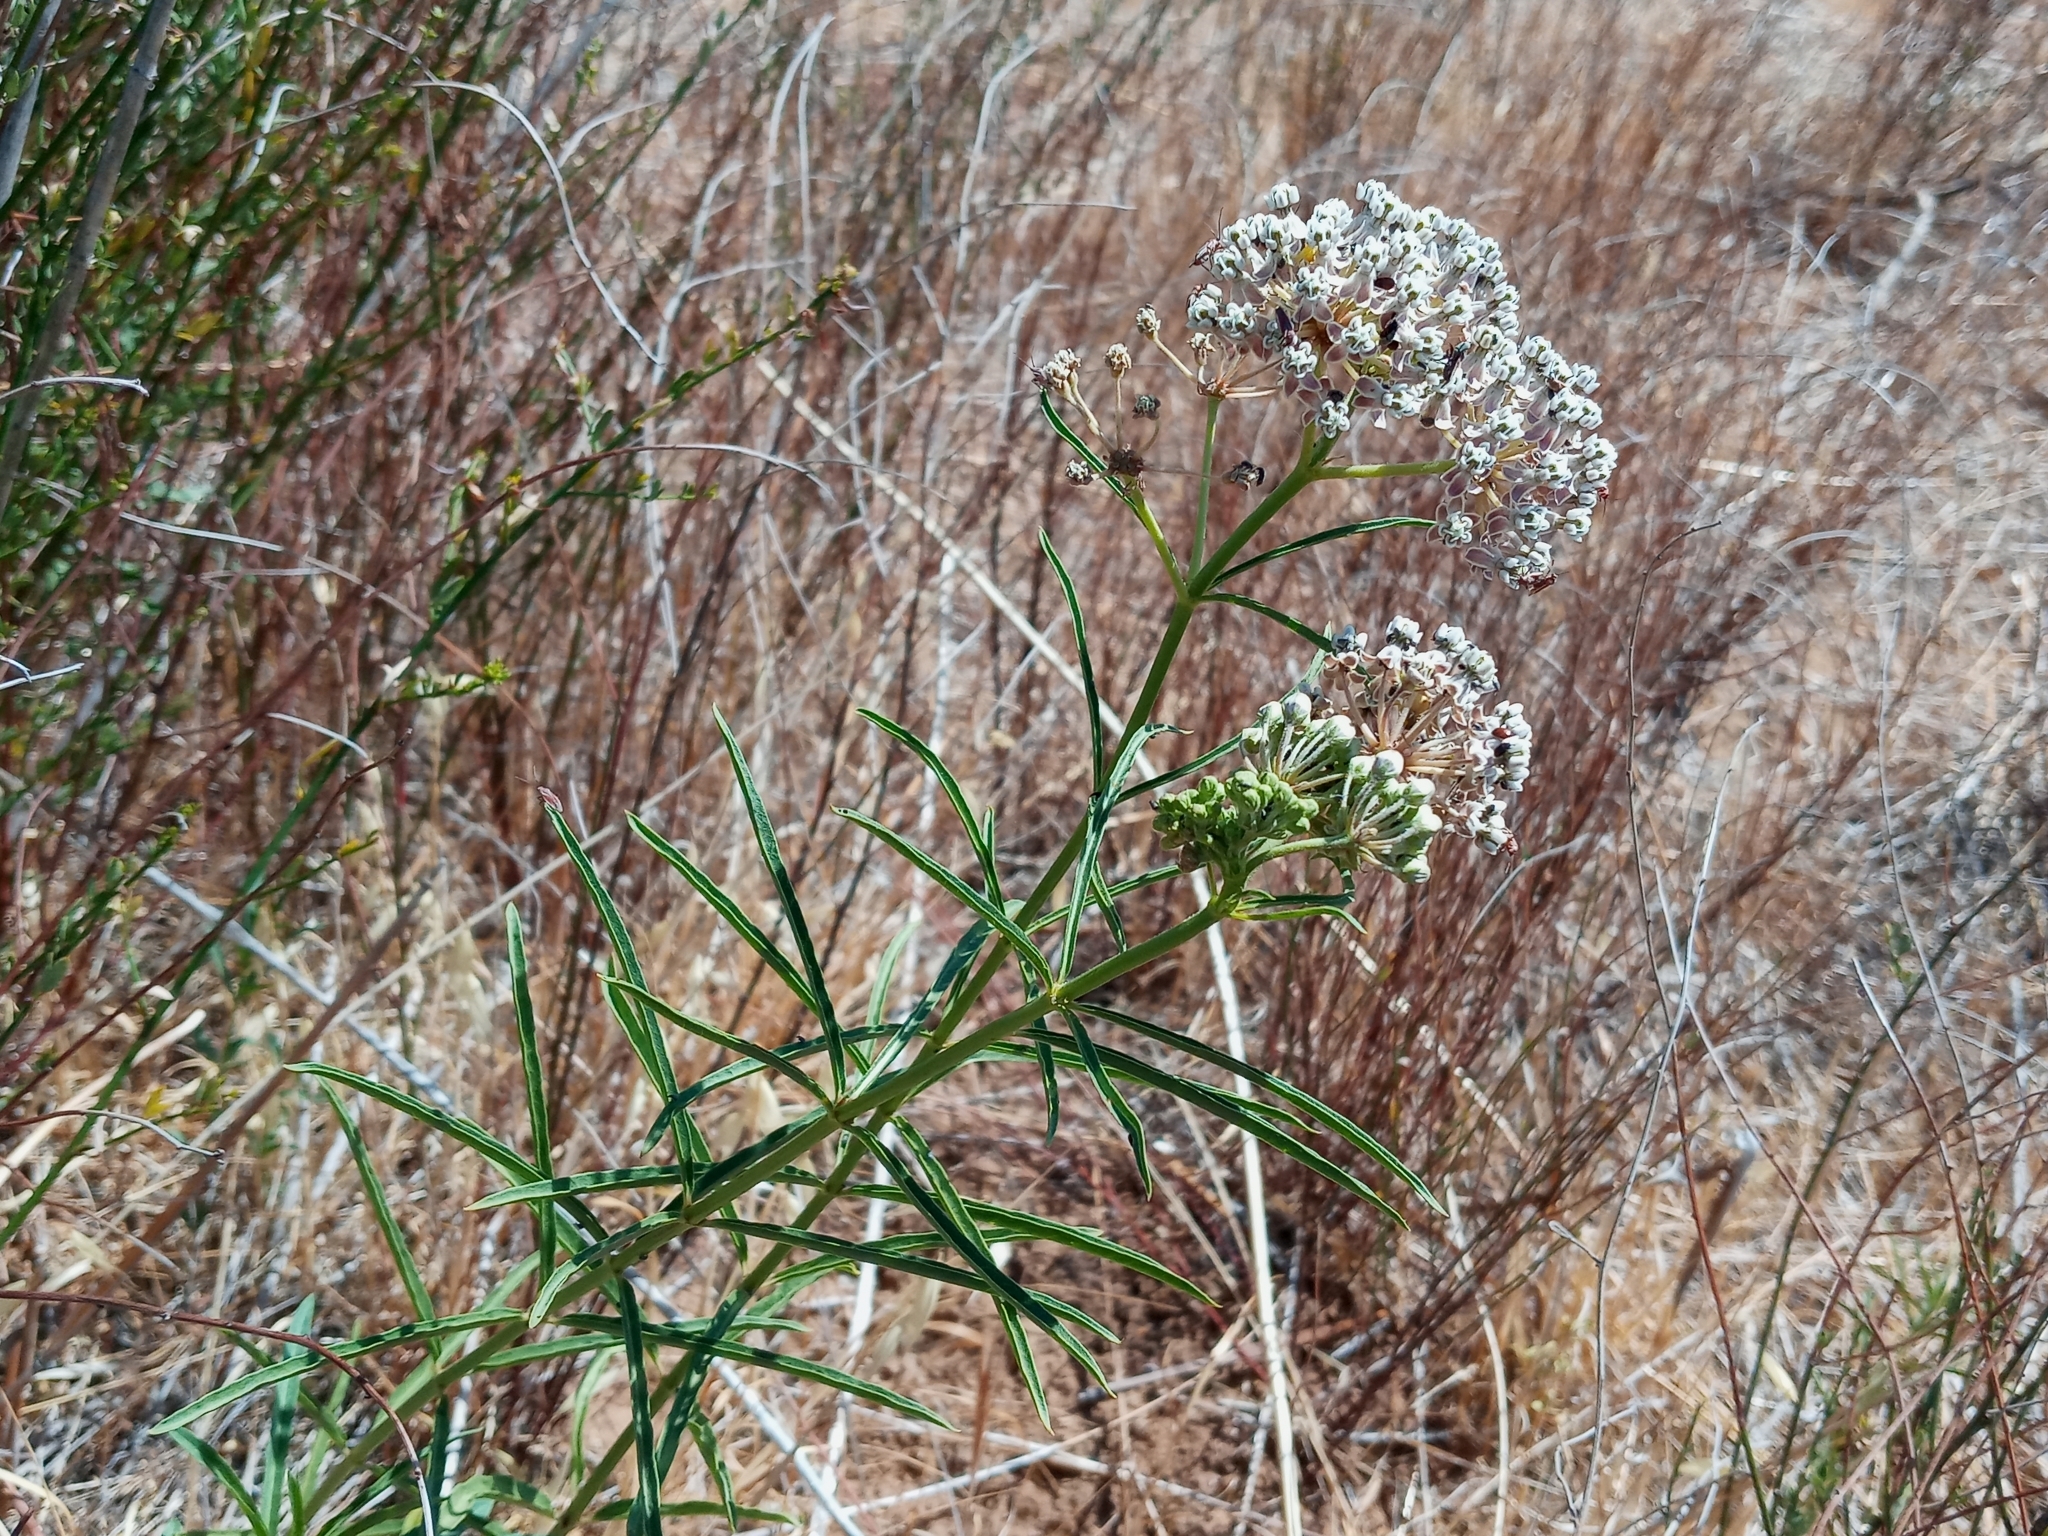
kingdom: Plantae
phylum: Tracheophyta
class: Magnoliopsida
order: Gentianales
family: Apocynaceae
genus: Asclepias
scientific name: Asclepias fascicularis
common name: Mexican milkweed
